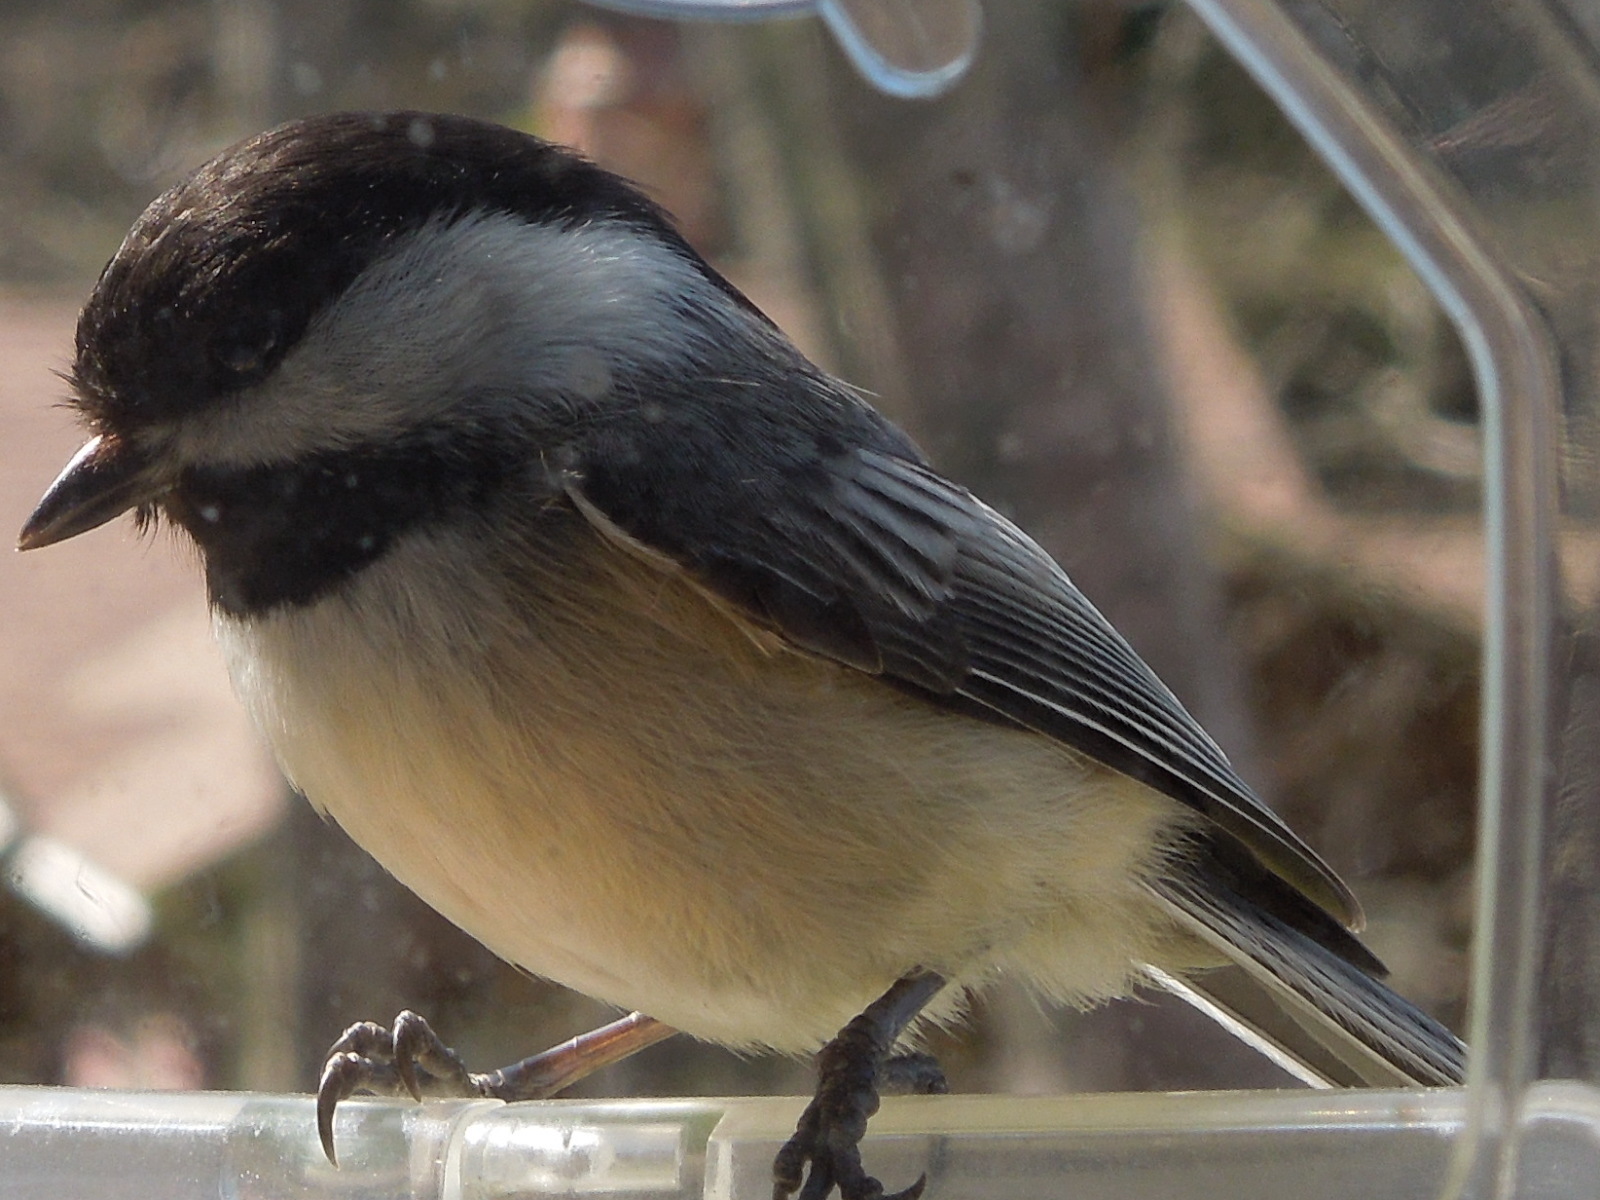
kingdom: Animalia
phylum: Chordata
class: Aves
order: Passeriformes
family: Paridae
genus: Poecile
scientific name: Poecile atricapillus
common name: Black-capped chickadee
